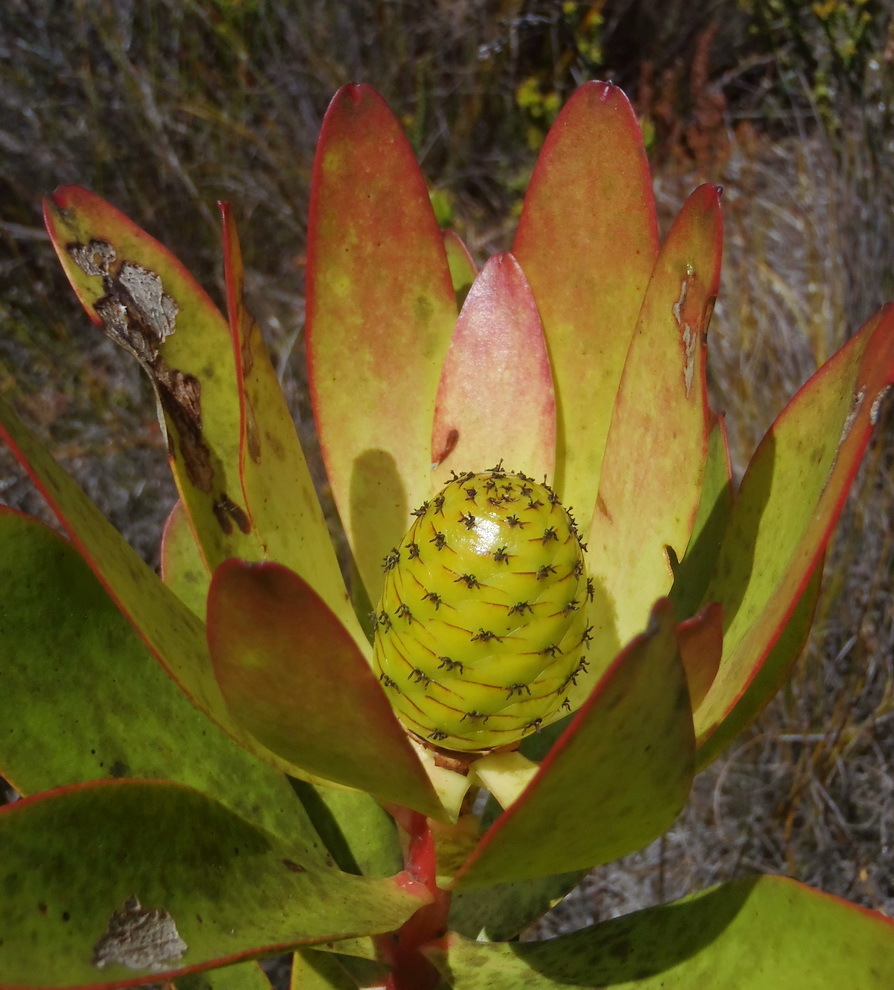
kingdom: Plantae
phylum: Tracheophyta
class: Magnoliopsida
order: Proteales
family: Proteaceae
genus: Leucadendron
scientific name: Leucadendron gandogeri
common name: Broad-leaf conebush
